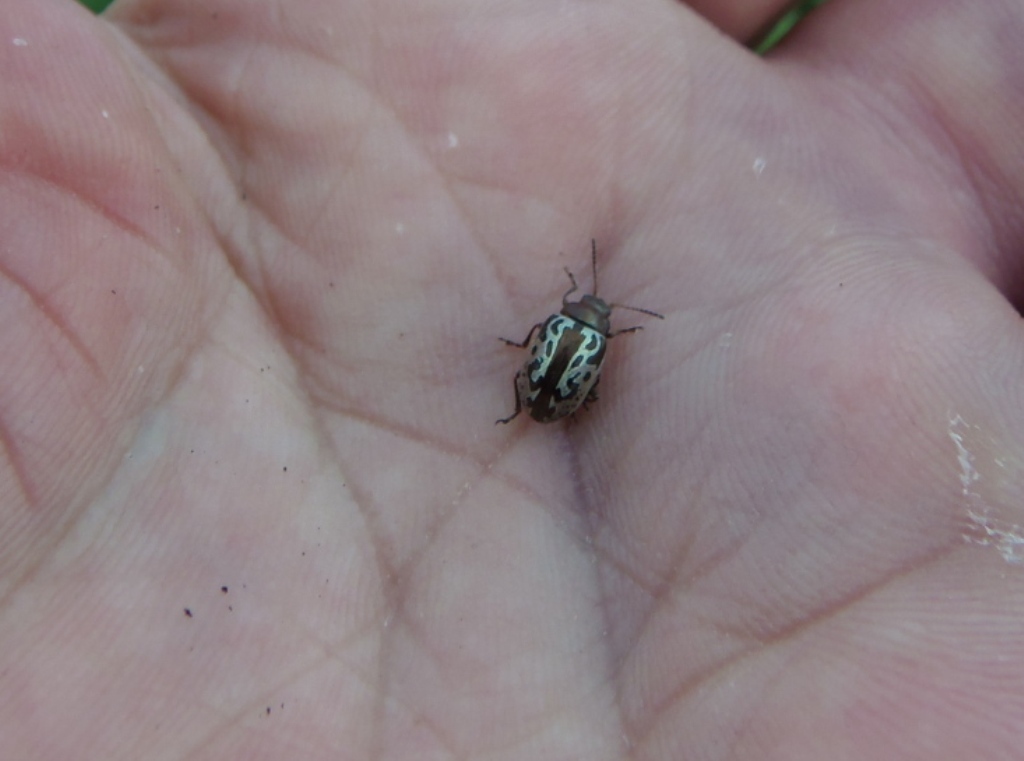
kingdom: Animalia
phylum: Arthropoda
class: Insecta
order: Coleoptera
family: Chrysomelidae
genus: Calligrapha
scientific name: Calligrapha
